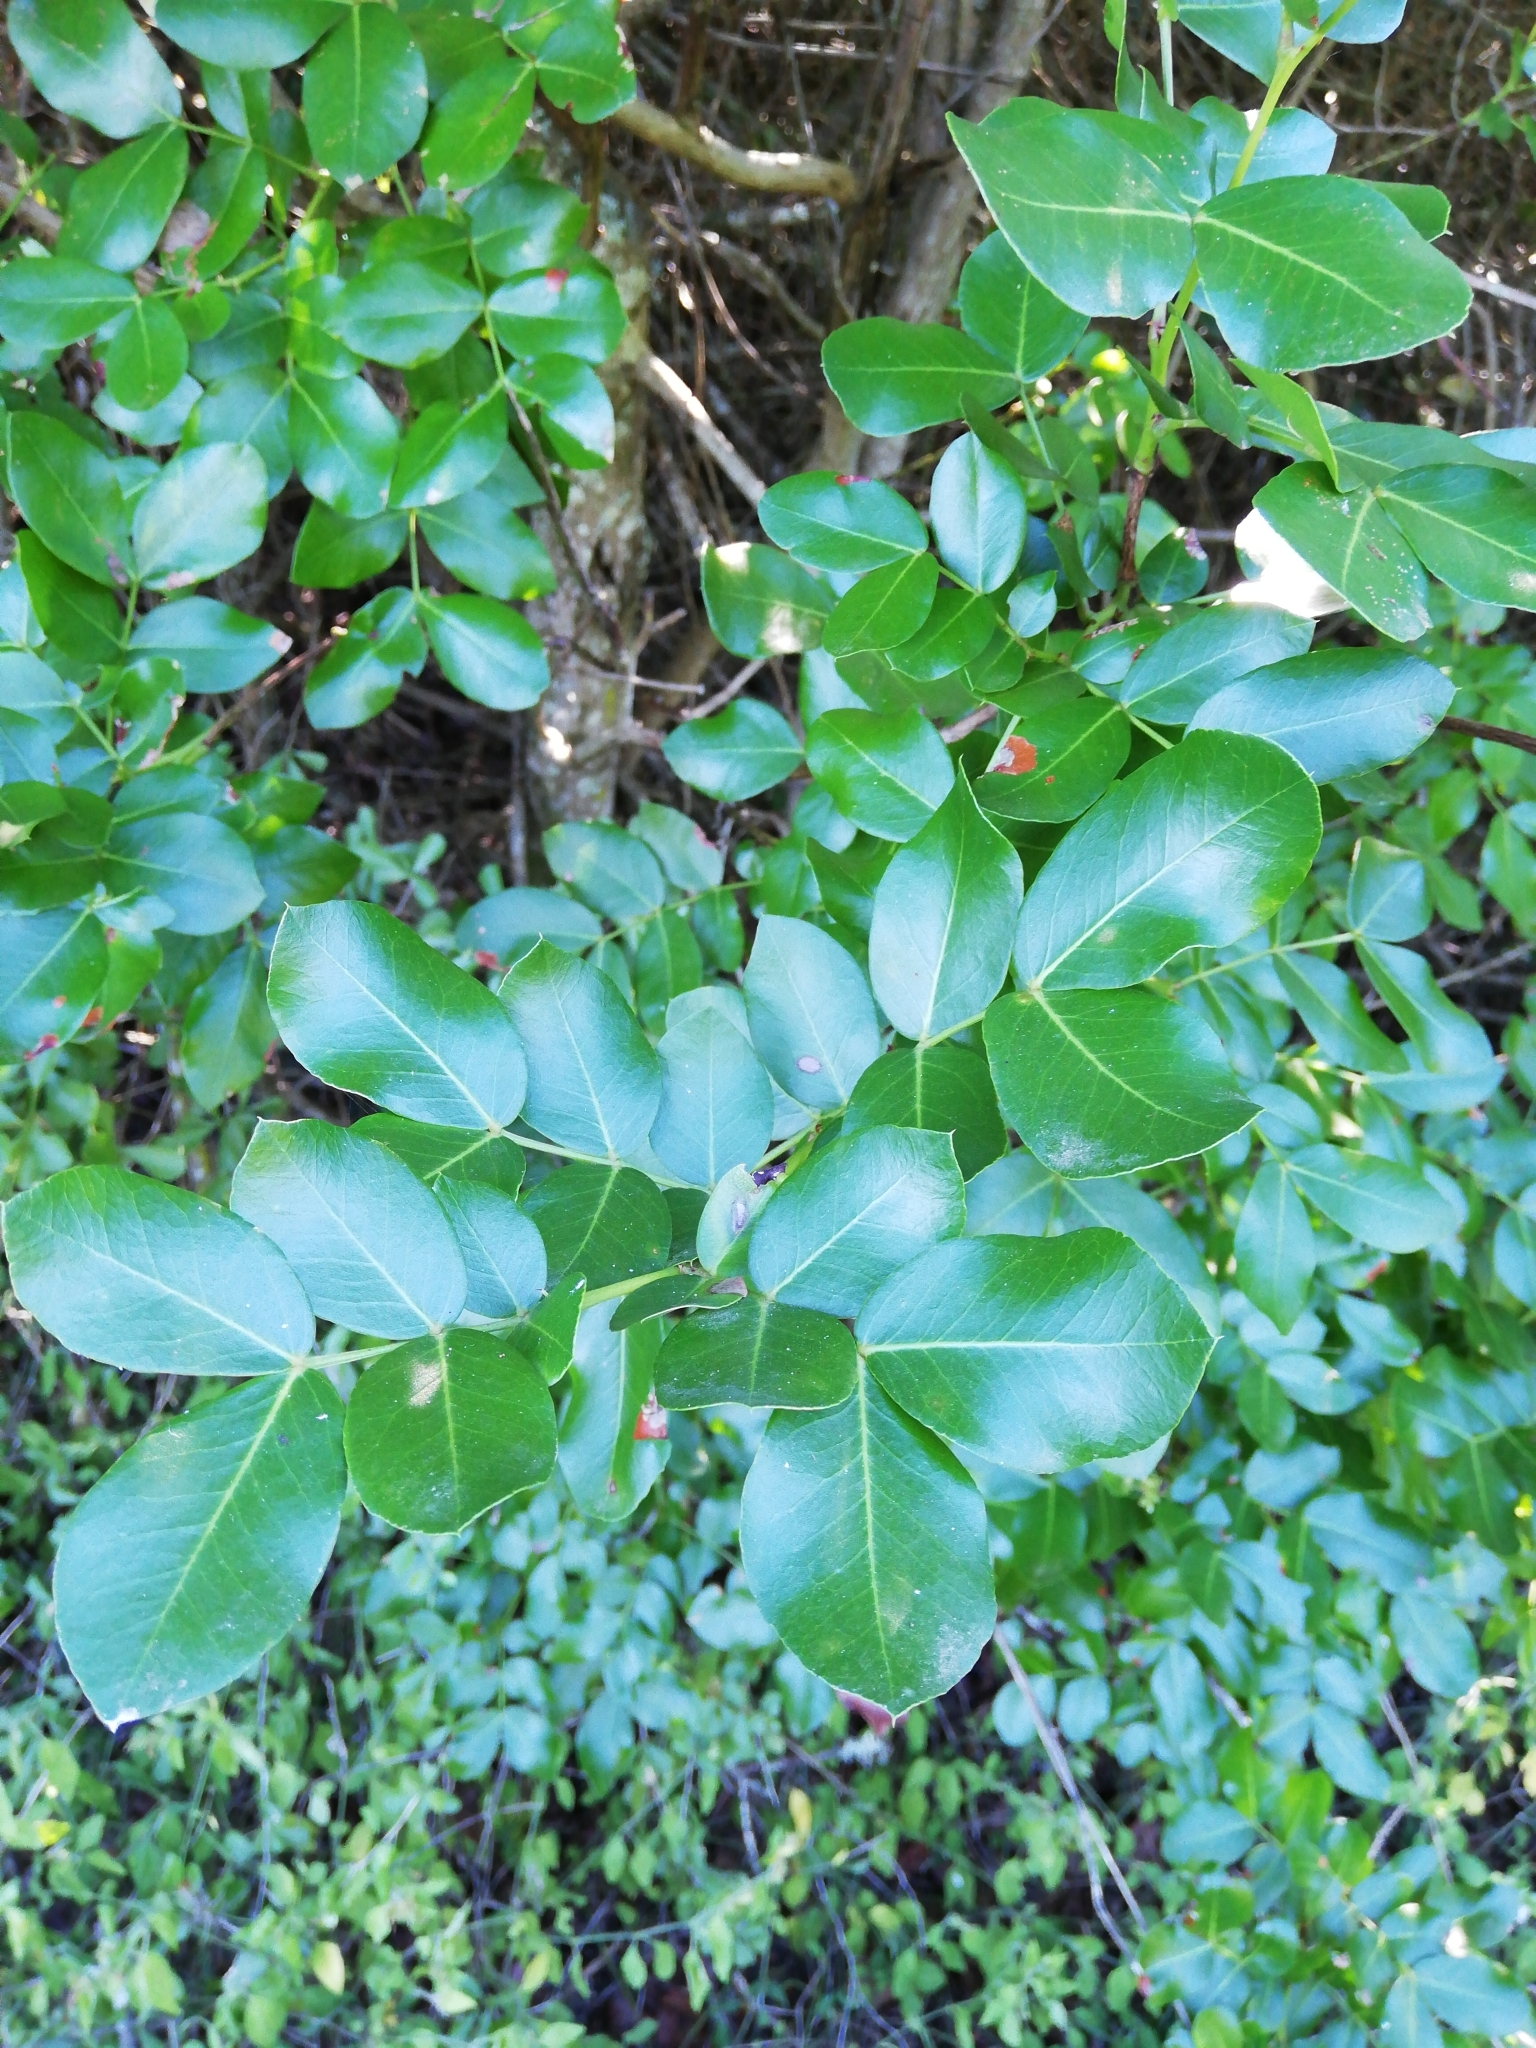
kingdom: Plantae
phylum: Tracheophyta
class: Magnoliopsida
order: Fabales
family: Fabaceae
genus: Schotia
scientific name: Schotia latifolia
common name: Bush boer-bean
